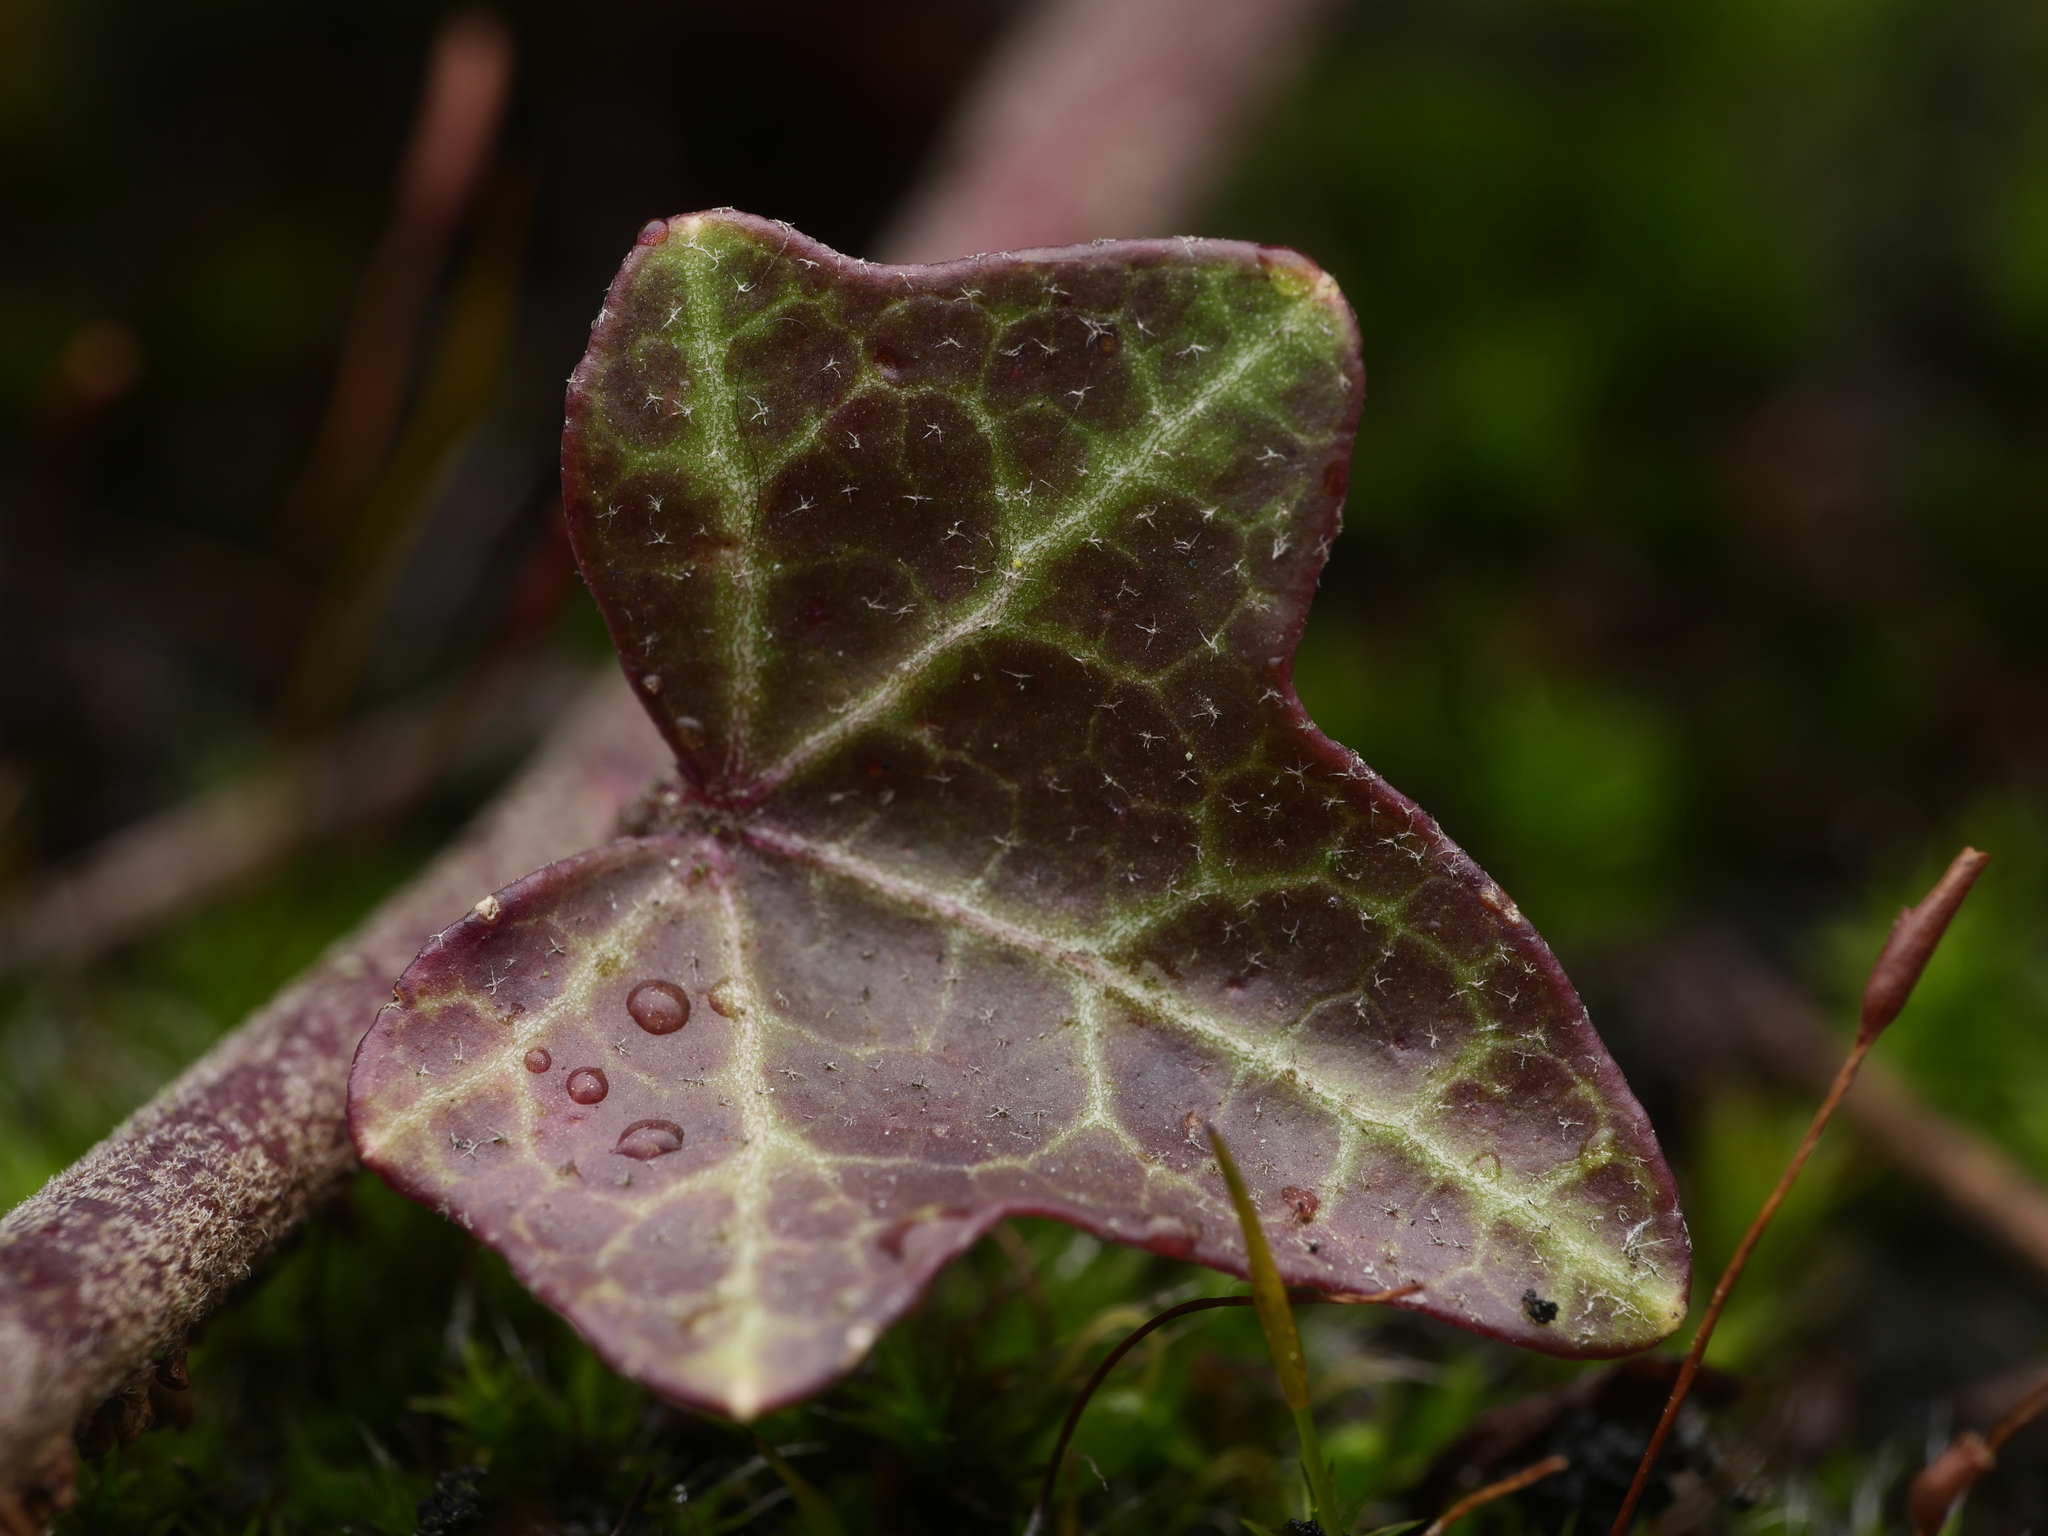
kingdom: Plantae
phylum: Tracheophyta
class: Magnoliopsida
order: Apiales
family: Araliaceae
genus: Hedera
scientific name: Hedera helix
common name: Ivy
